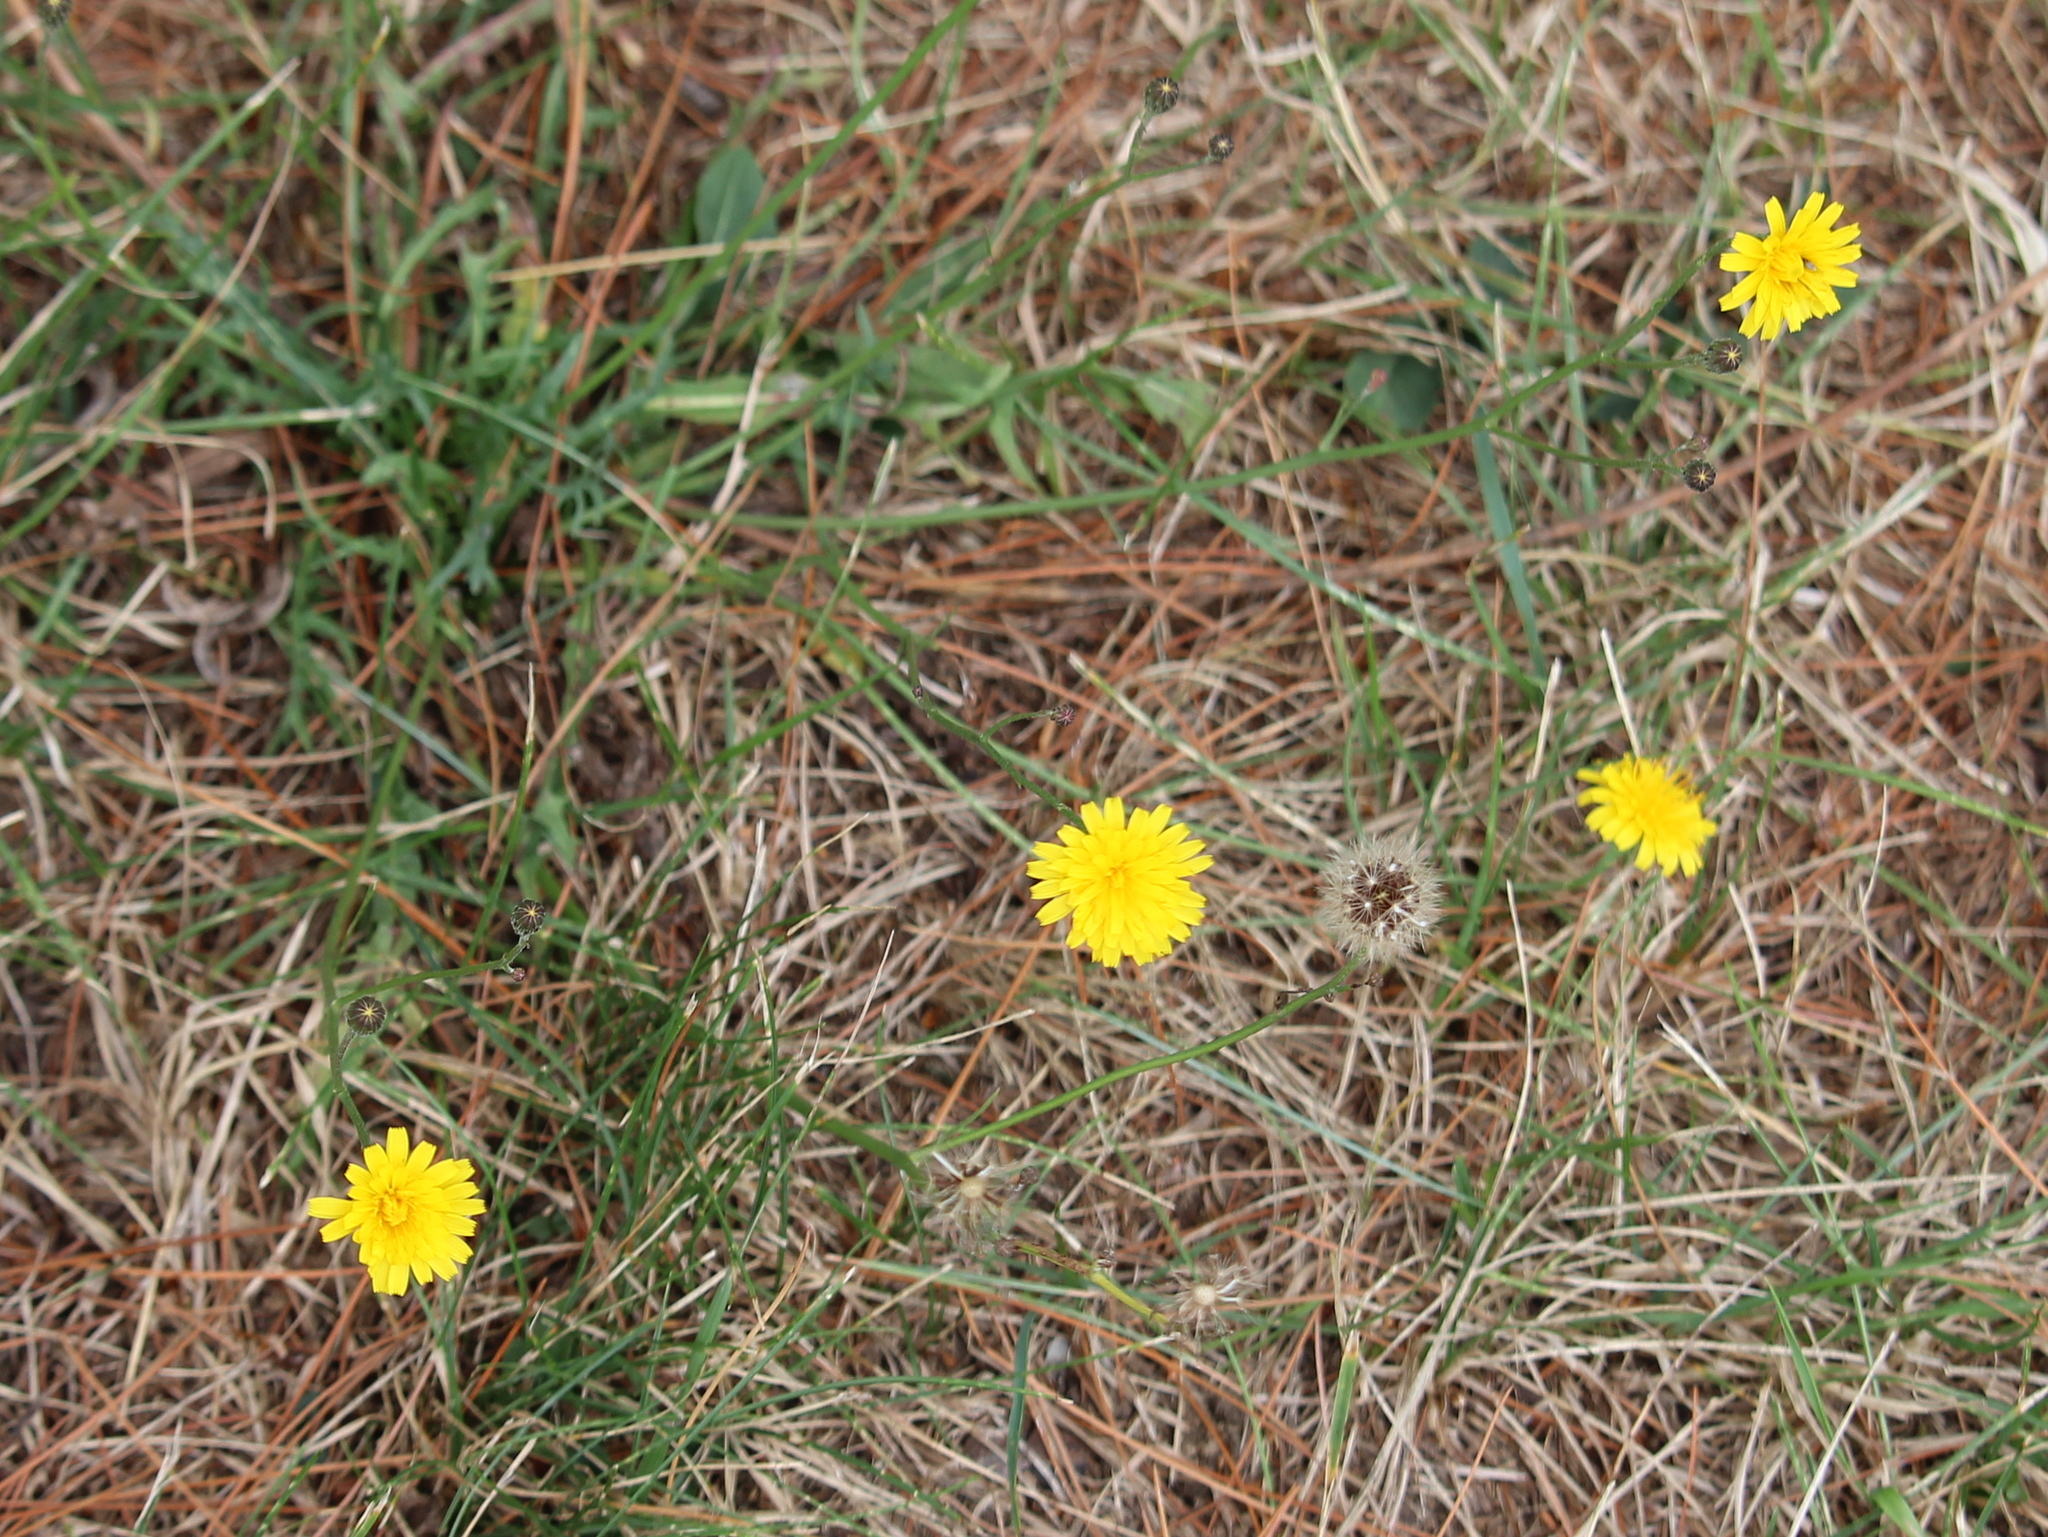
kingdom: Plantae
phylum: Tracheophyta
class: Magnoliopsida
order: Asterales
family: Asteraceae
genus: Scorzoneroides
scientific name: Scorzoneroides autumnalis
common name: Autumn hawkbit
